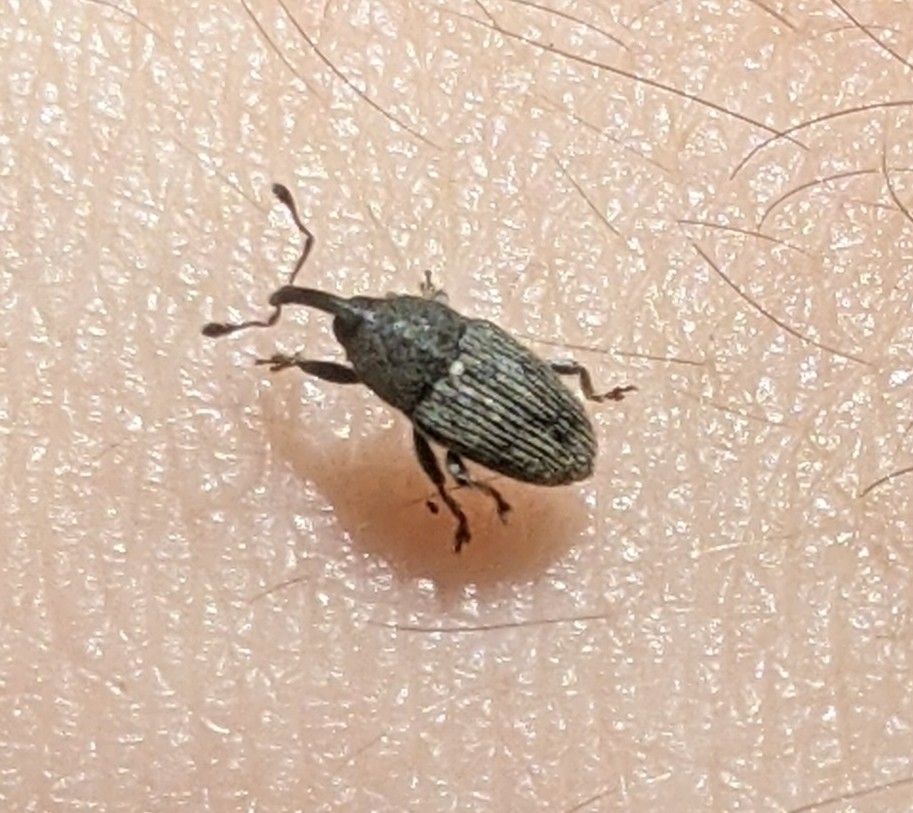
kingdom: Animalia
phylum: Arthropoda
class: Insecta
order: Coleoptera
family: Curculionidae
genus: Odontocorynus
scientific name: Odontocorynus falsus
